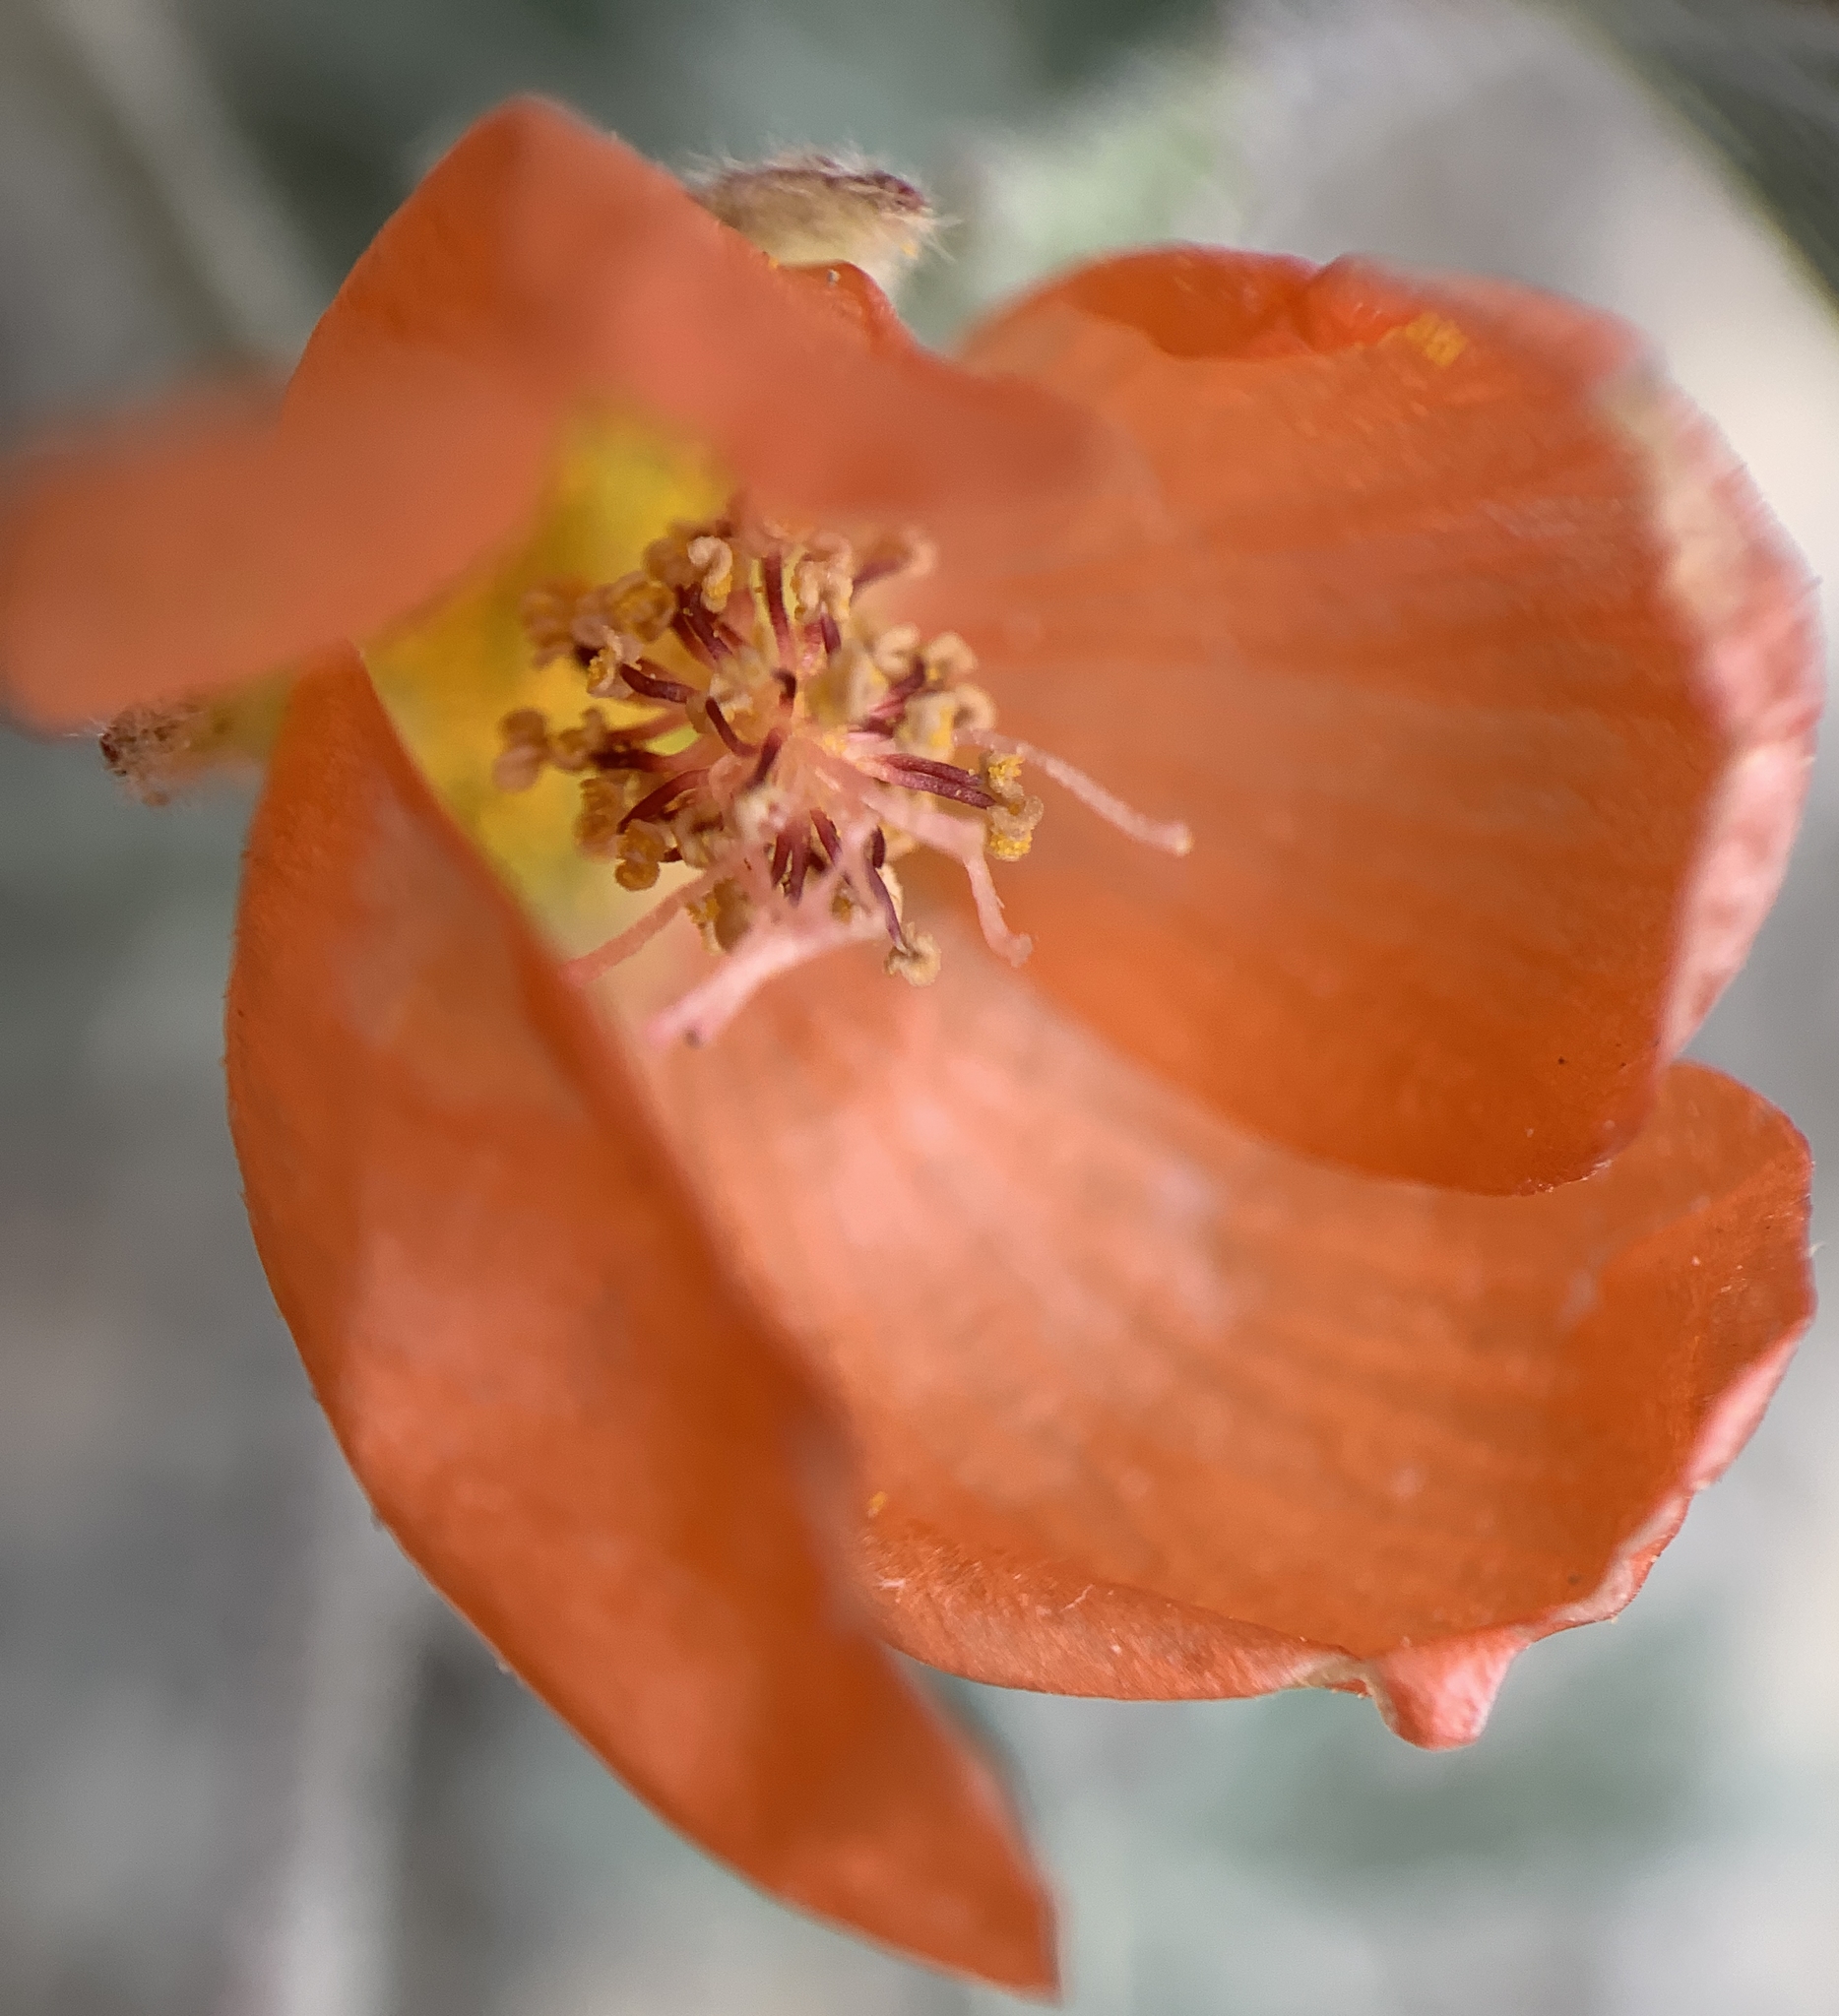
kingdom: Plantae
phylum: Tracheophyta
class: Magnoliopsida
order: Malvales
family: Malvaceae
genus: Sphaeralcea
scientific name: Sphaeralcea grossulariifolia
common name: Current-leaf globe-mallow
